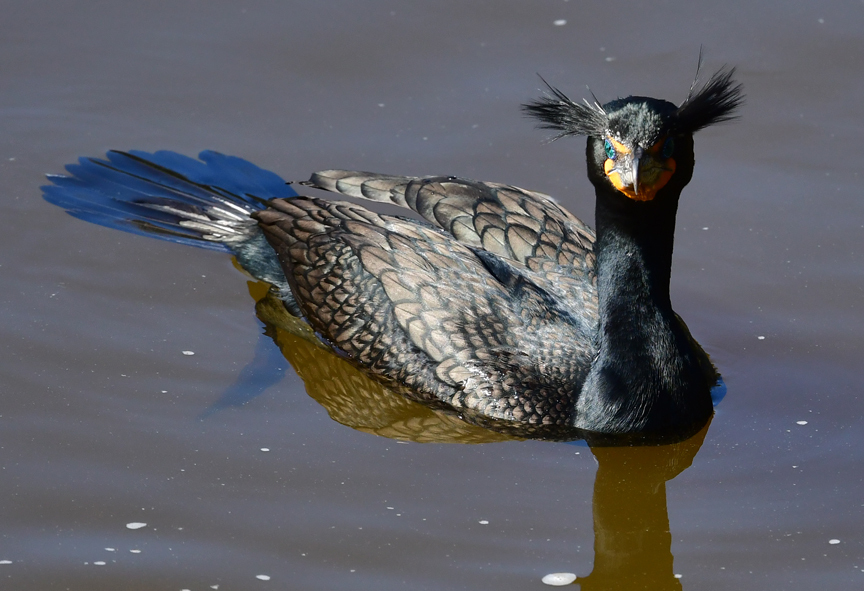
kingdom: Animalia
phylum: Chordata
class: Aves
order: Suliformes
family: Phalacrocoracidae
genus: Phalacrocorax
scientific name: Phalacrocorax auritus
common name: Double-crested cormorant
